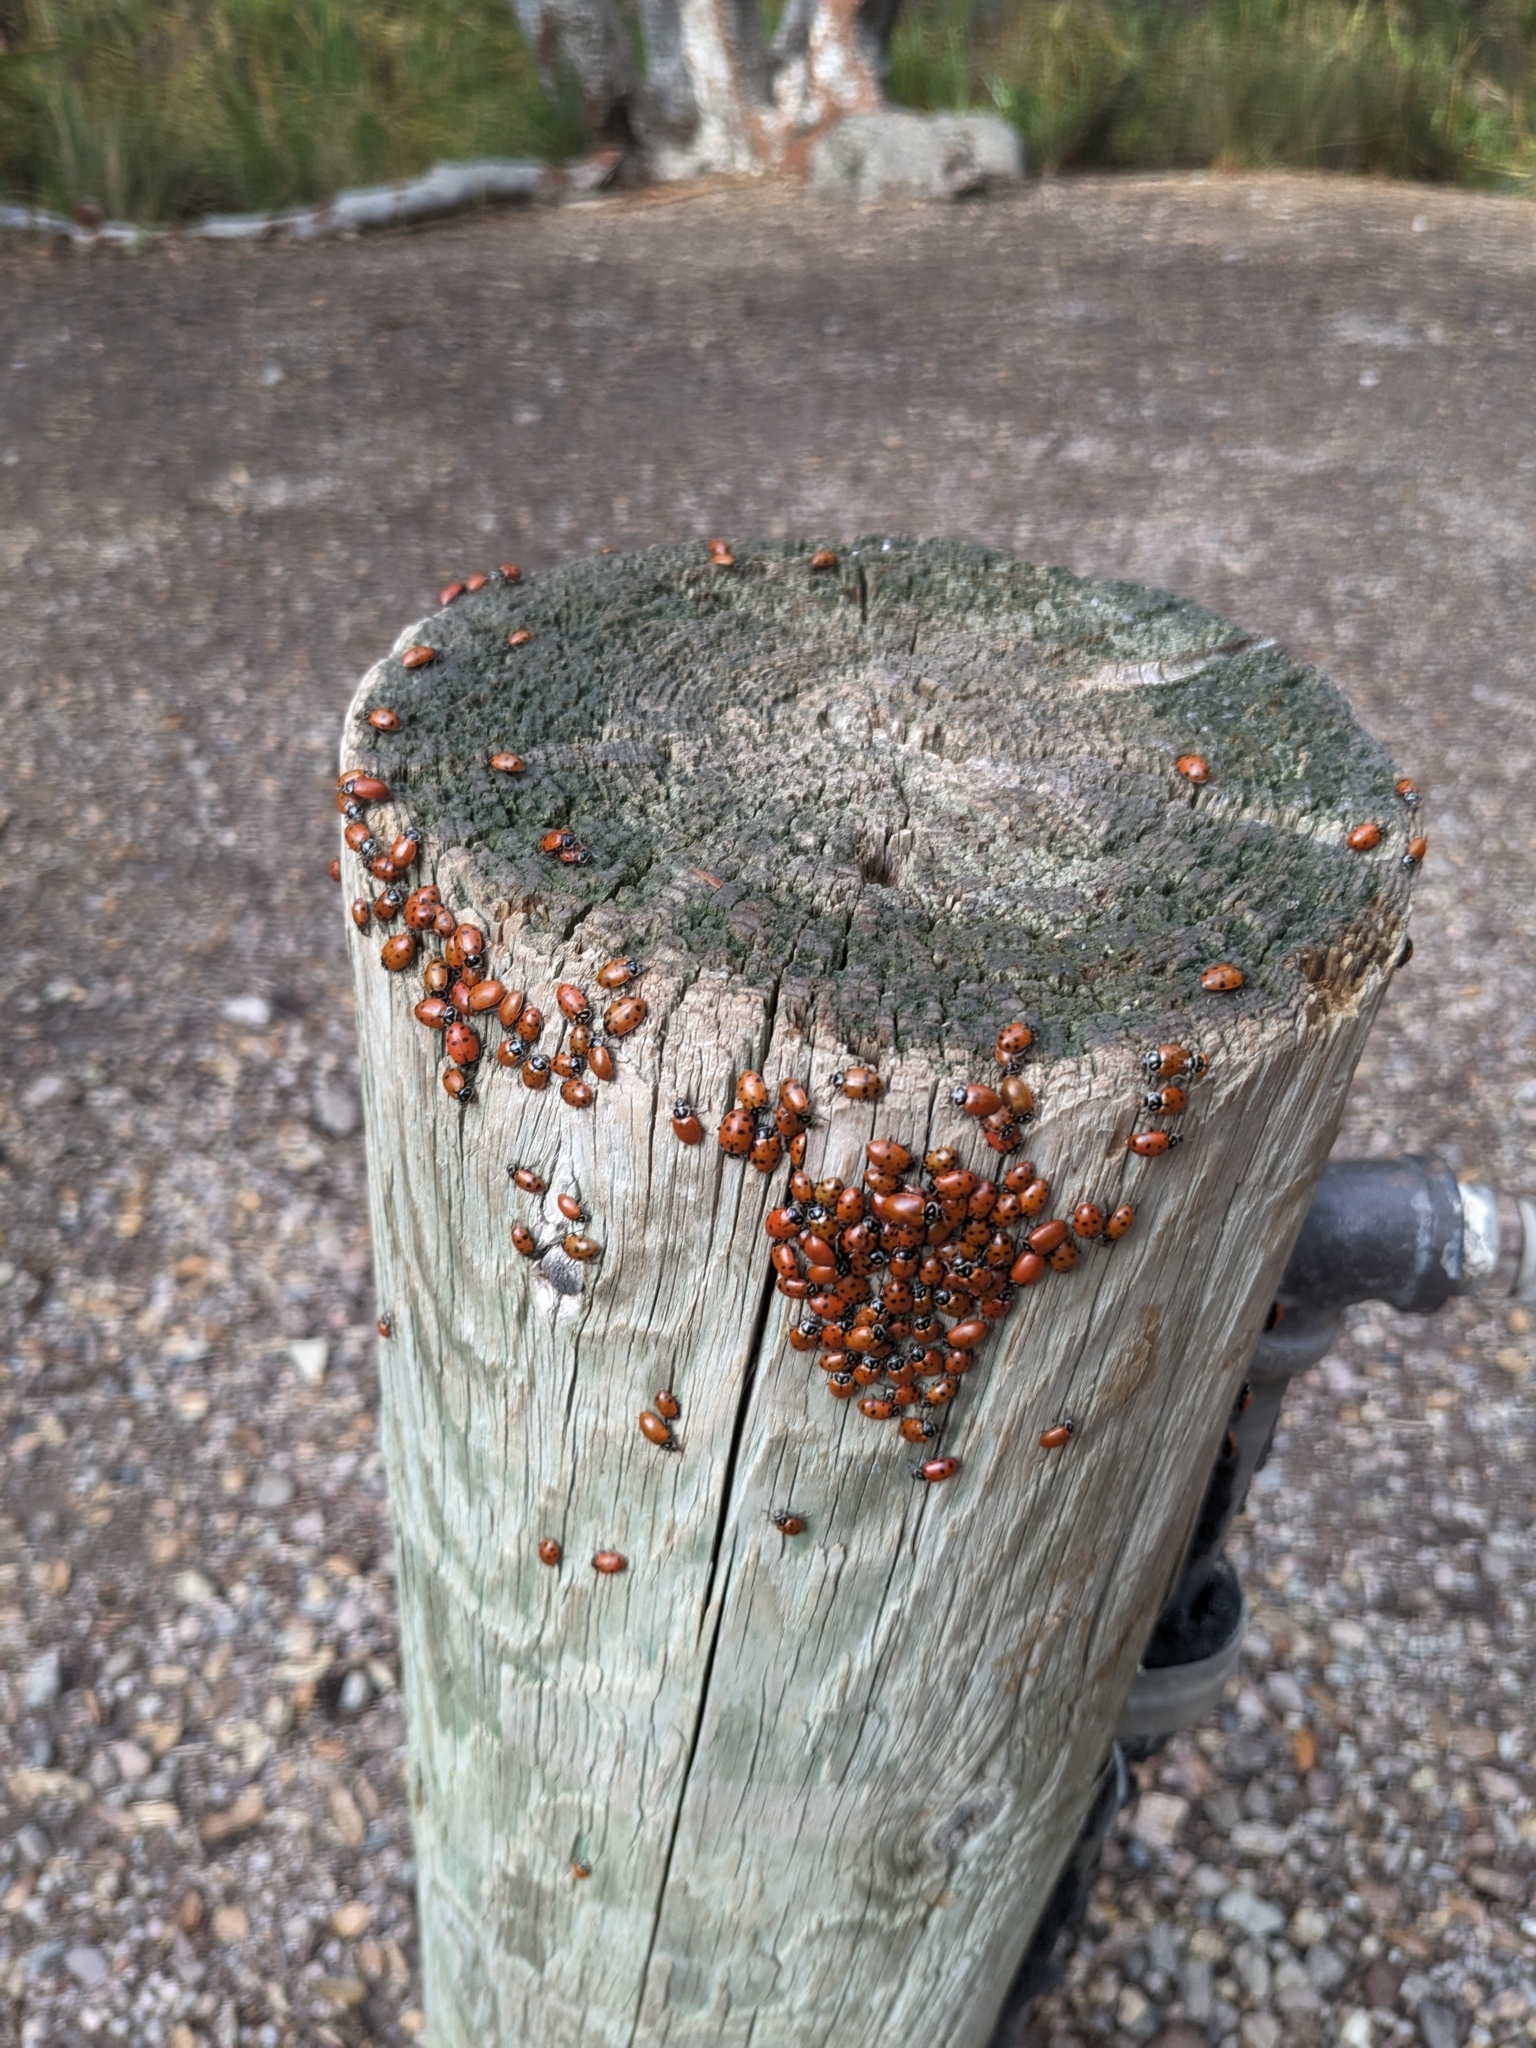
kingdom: Animalia
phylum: Arthropoda
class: Insecta
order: Coleoptera
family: Coccinellidae
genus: Hippodamia
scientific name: Hippodamia convergens
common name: Convergent lady beetle
